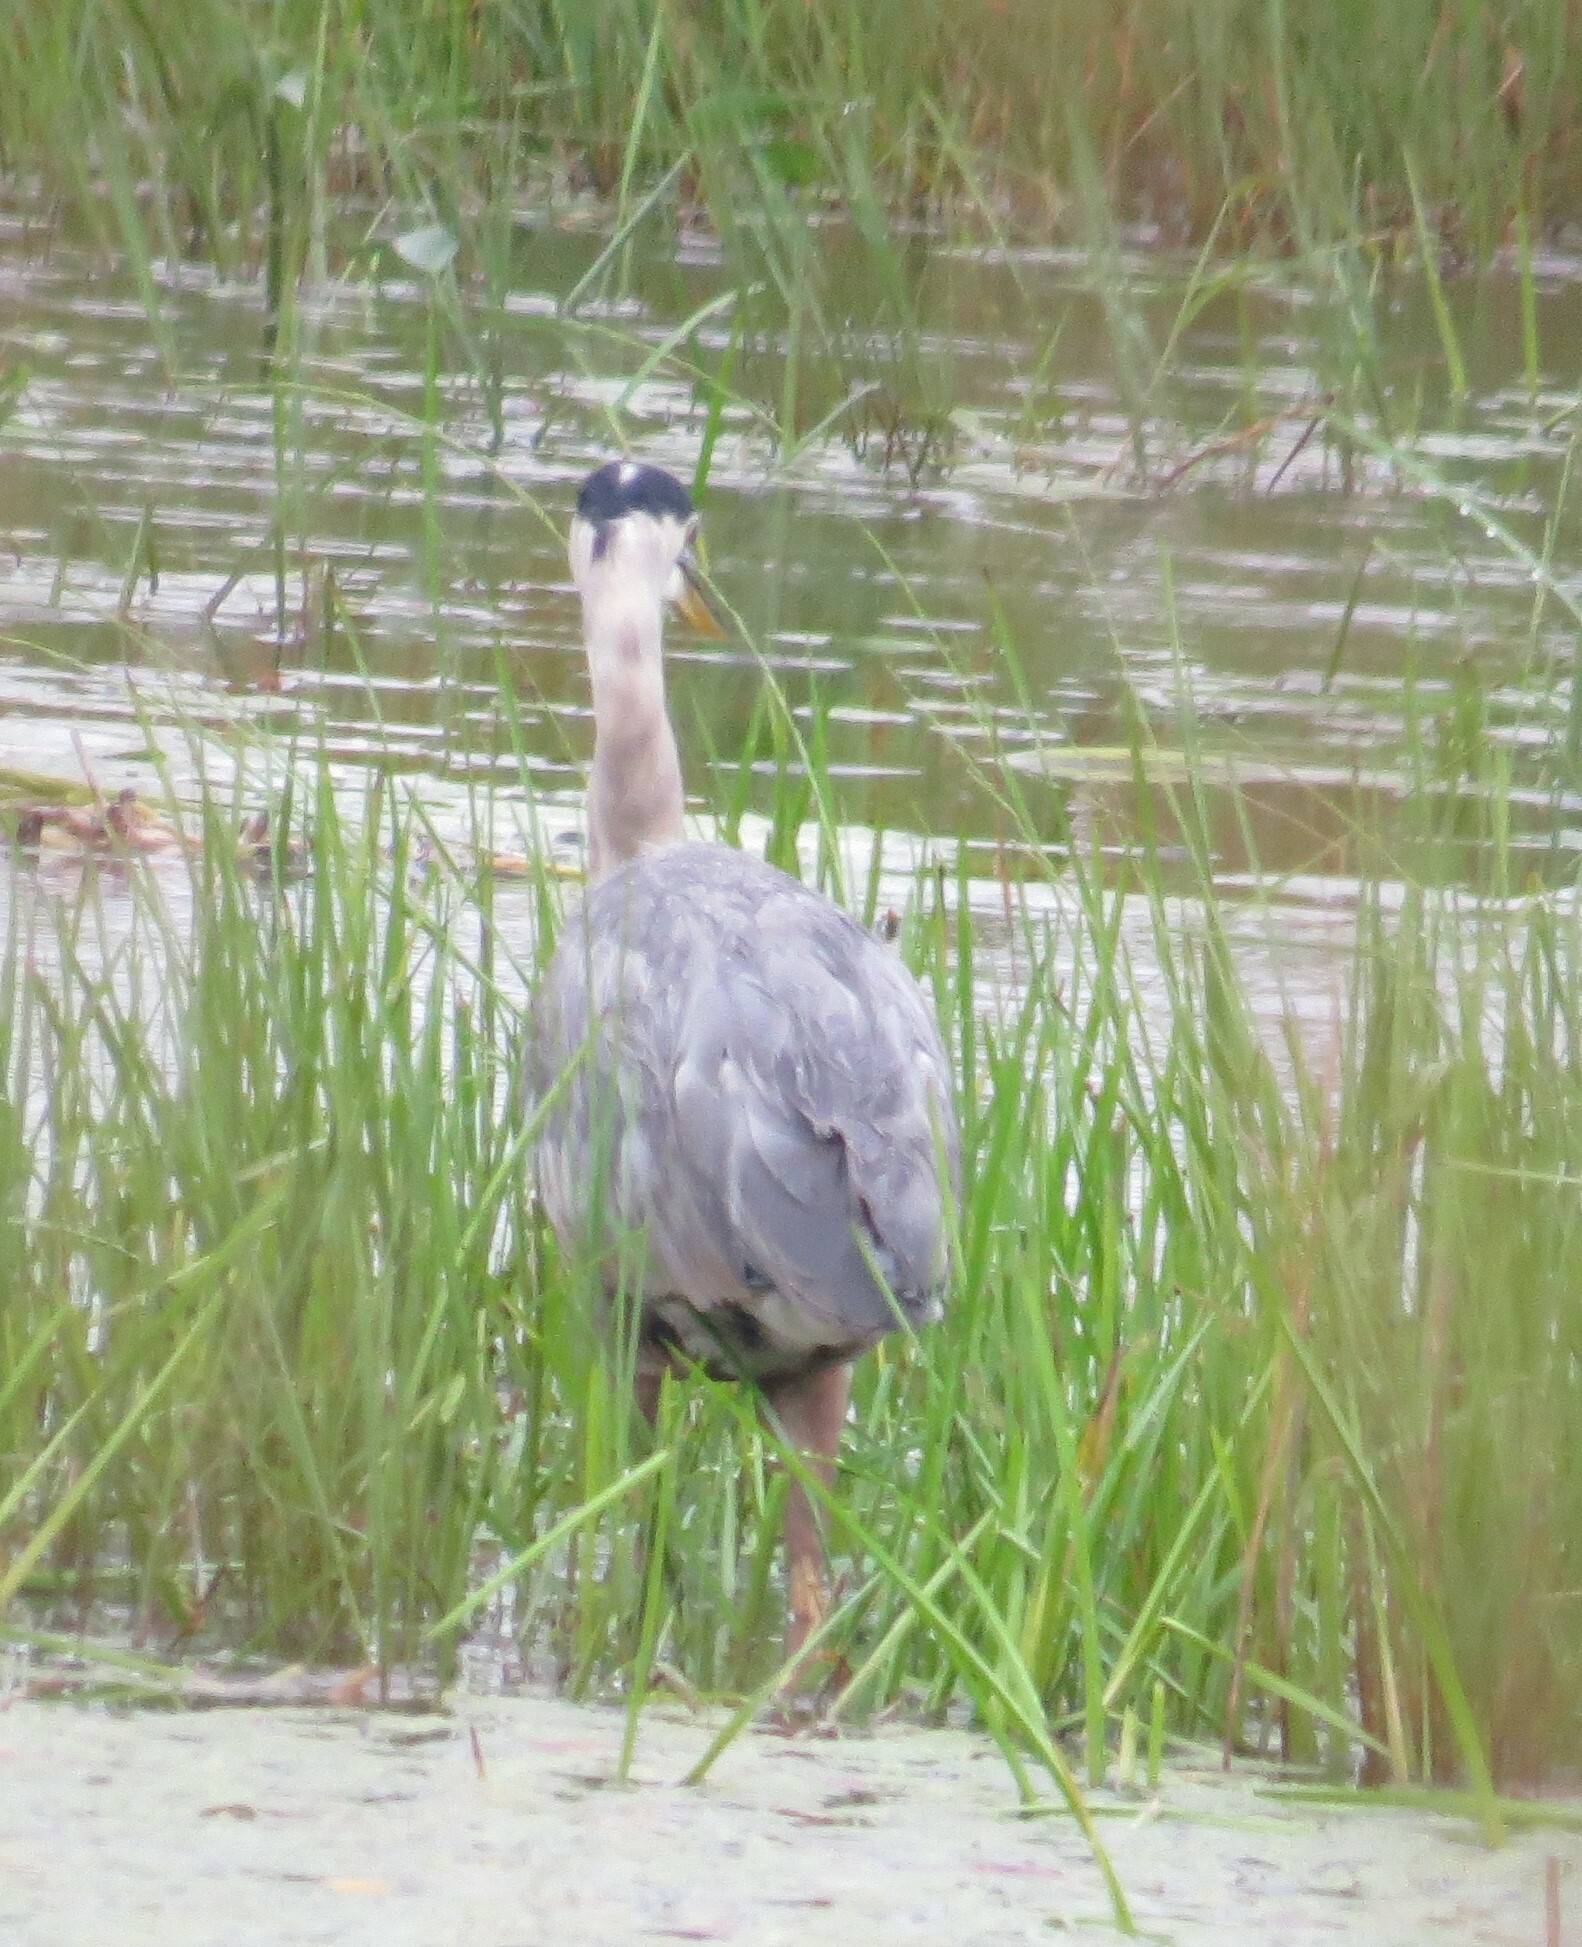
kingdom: Animalia
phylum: Chordata
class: Aves
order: Pelecaniformes
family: Ardeidae
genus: Ardea
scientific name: Ardea herodias
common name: Great blue heron
